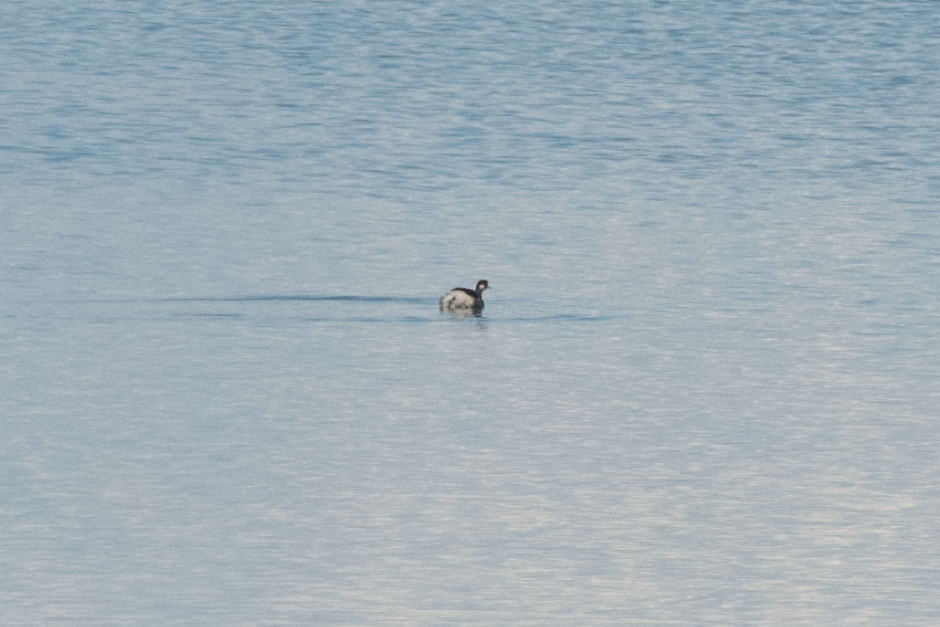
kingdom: Animalia
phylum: Chordata
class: Aves
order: Podicipediformes
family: Podicipedidae
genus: Podiceps
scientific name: Podiceps nigricollis
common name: Black-necked grebe
